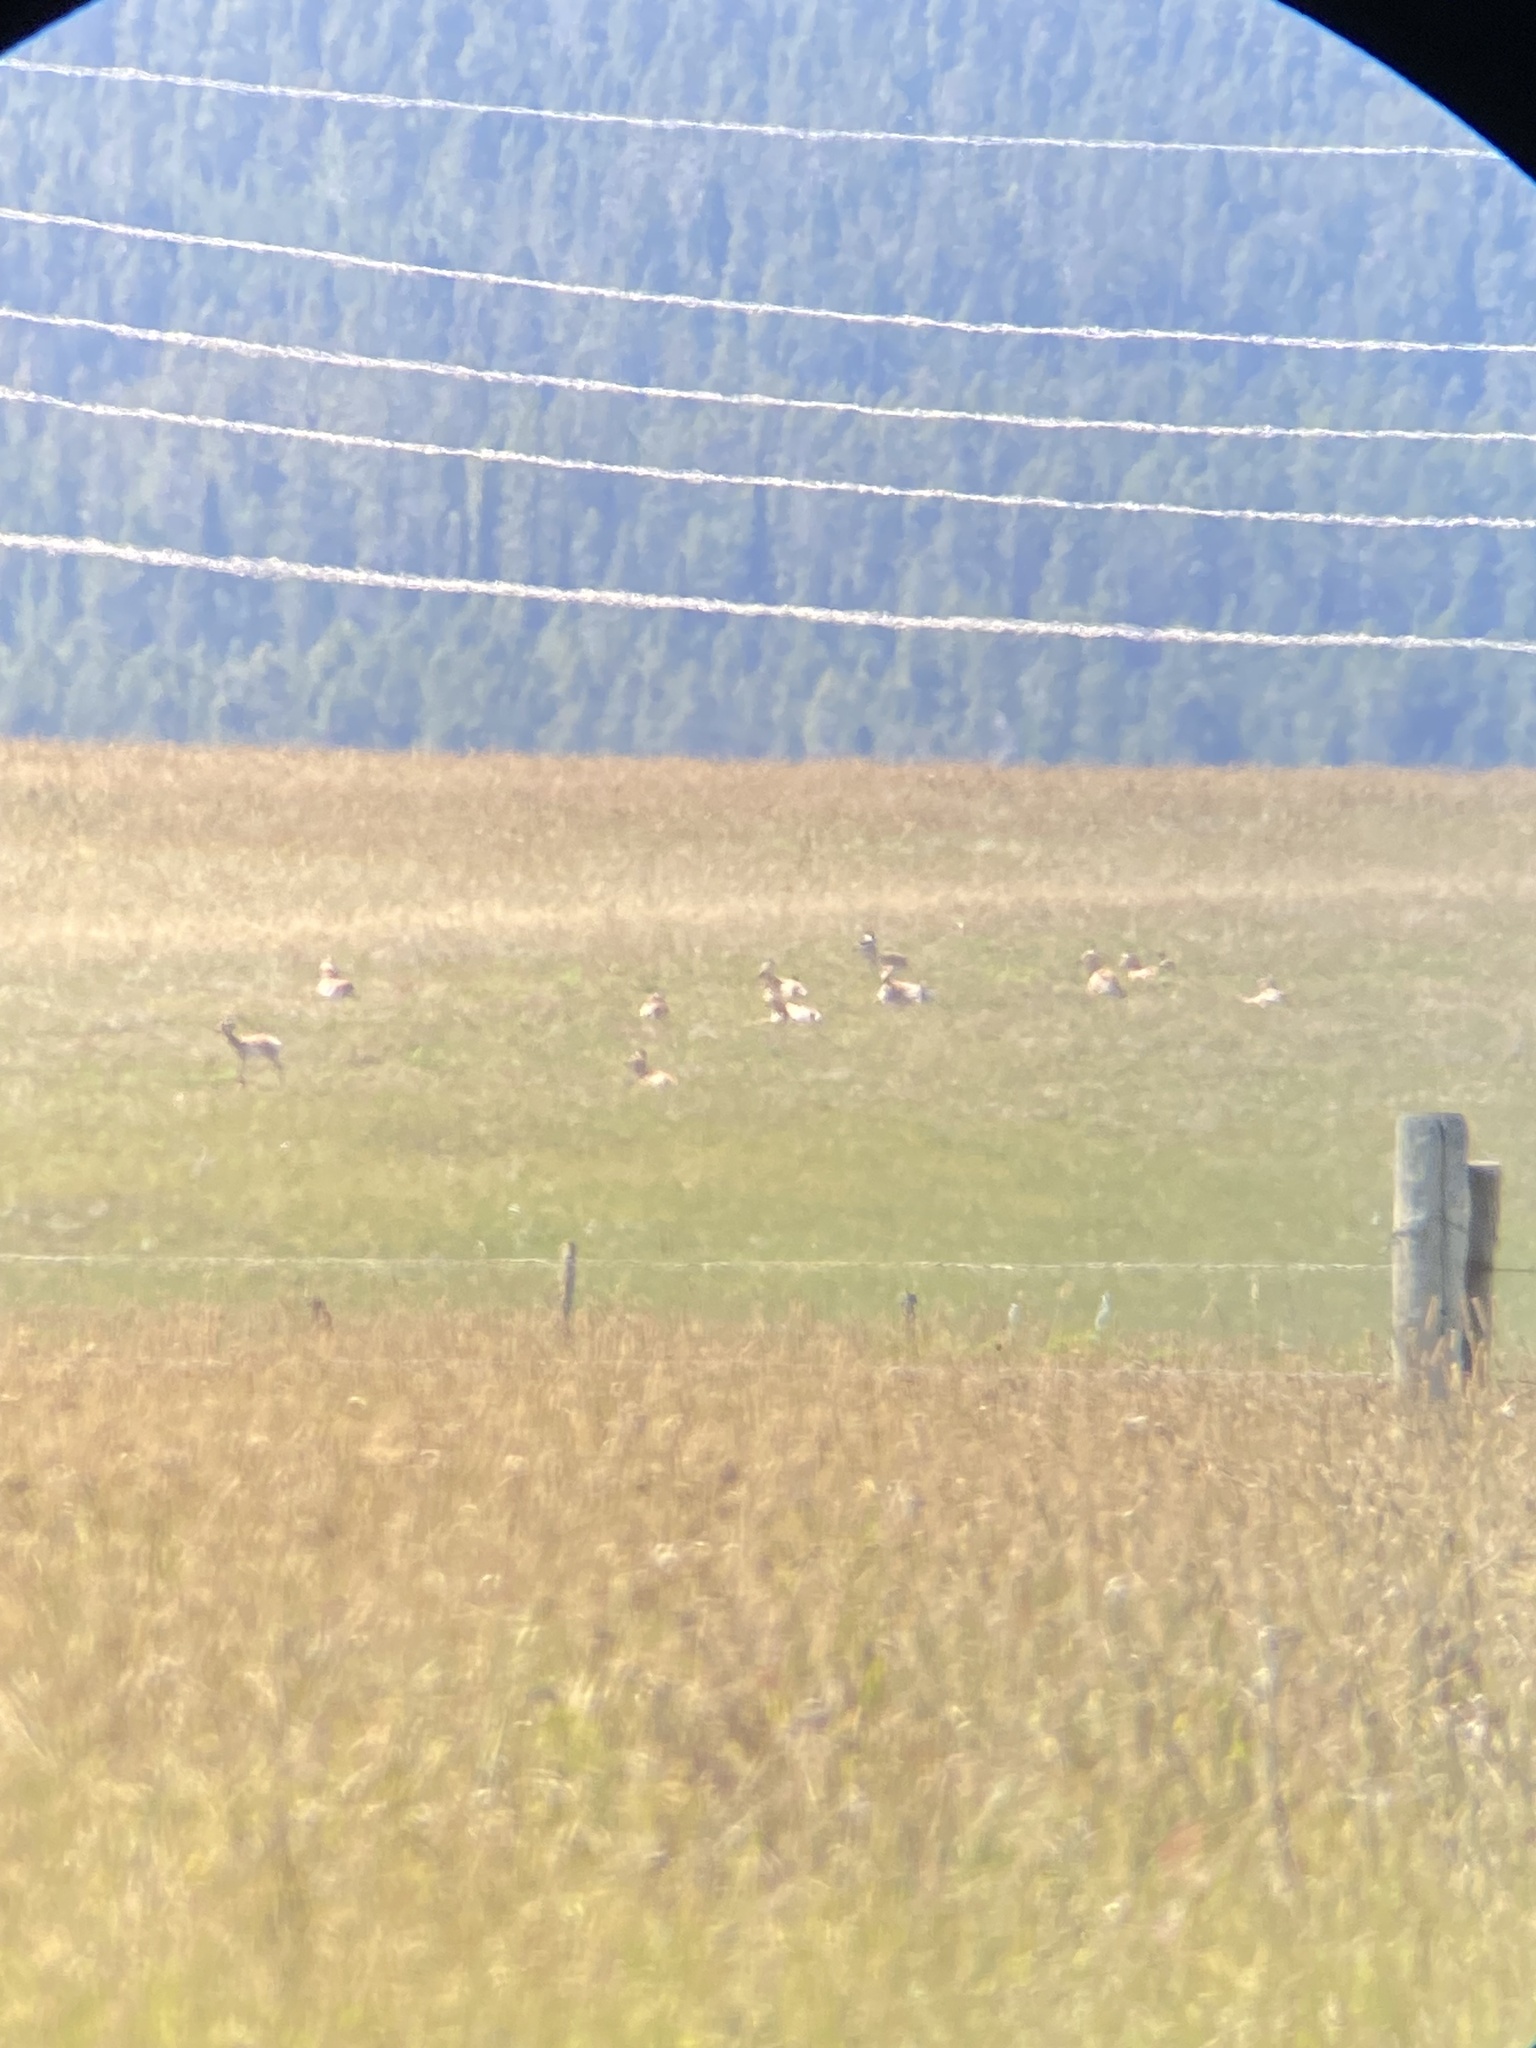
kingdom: Animalia
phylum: Chordata
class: Mammalia
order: Artiodactyla
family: Antilocapridae
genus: Antilocapra
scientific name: Antilocapra americana
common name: Pronghorn
